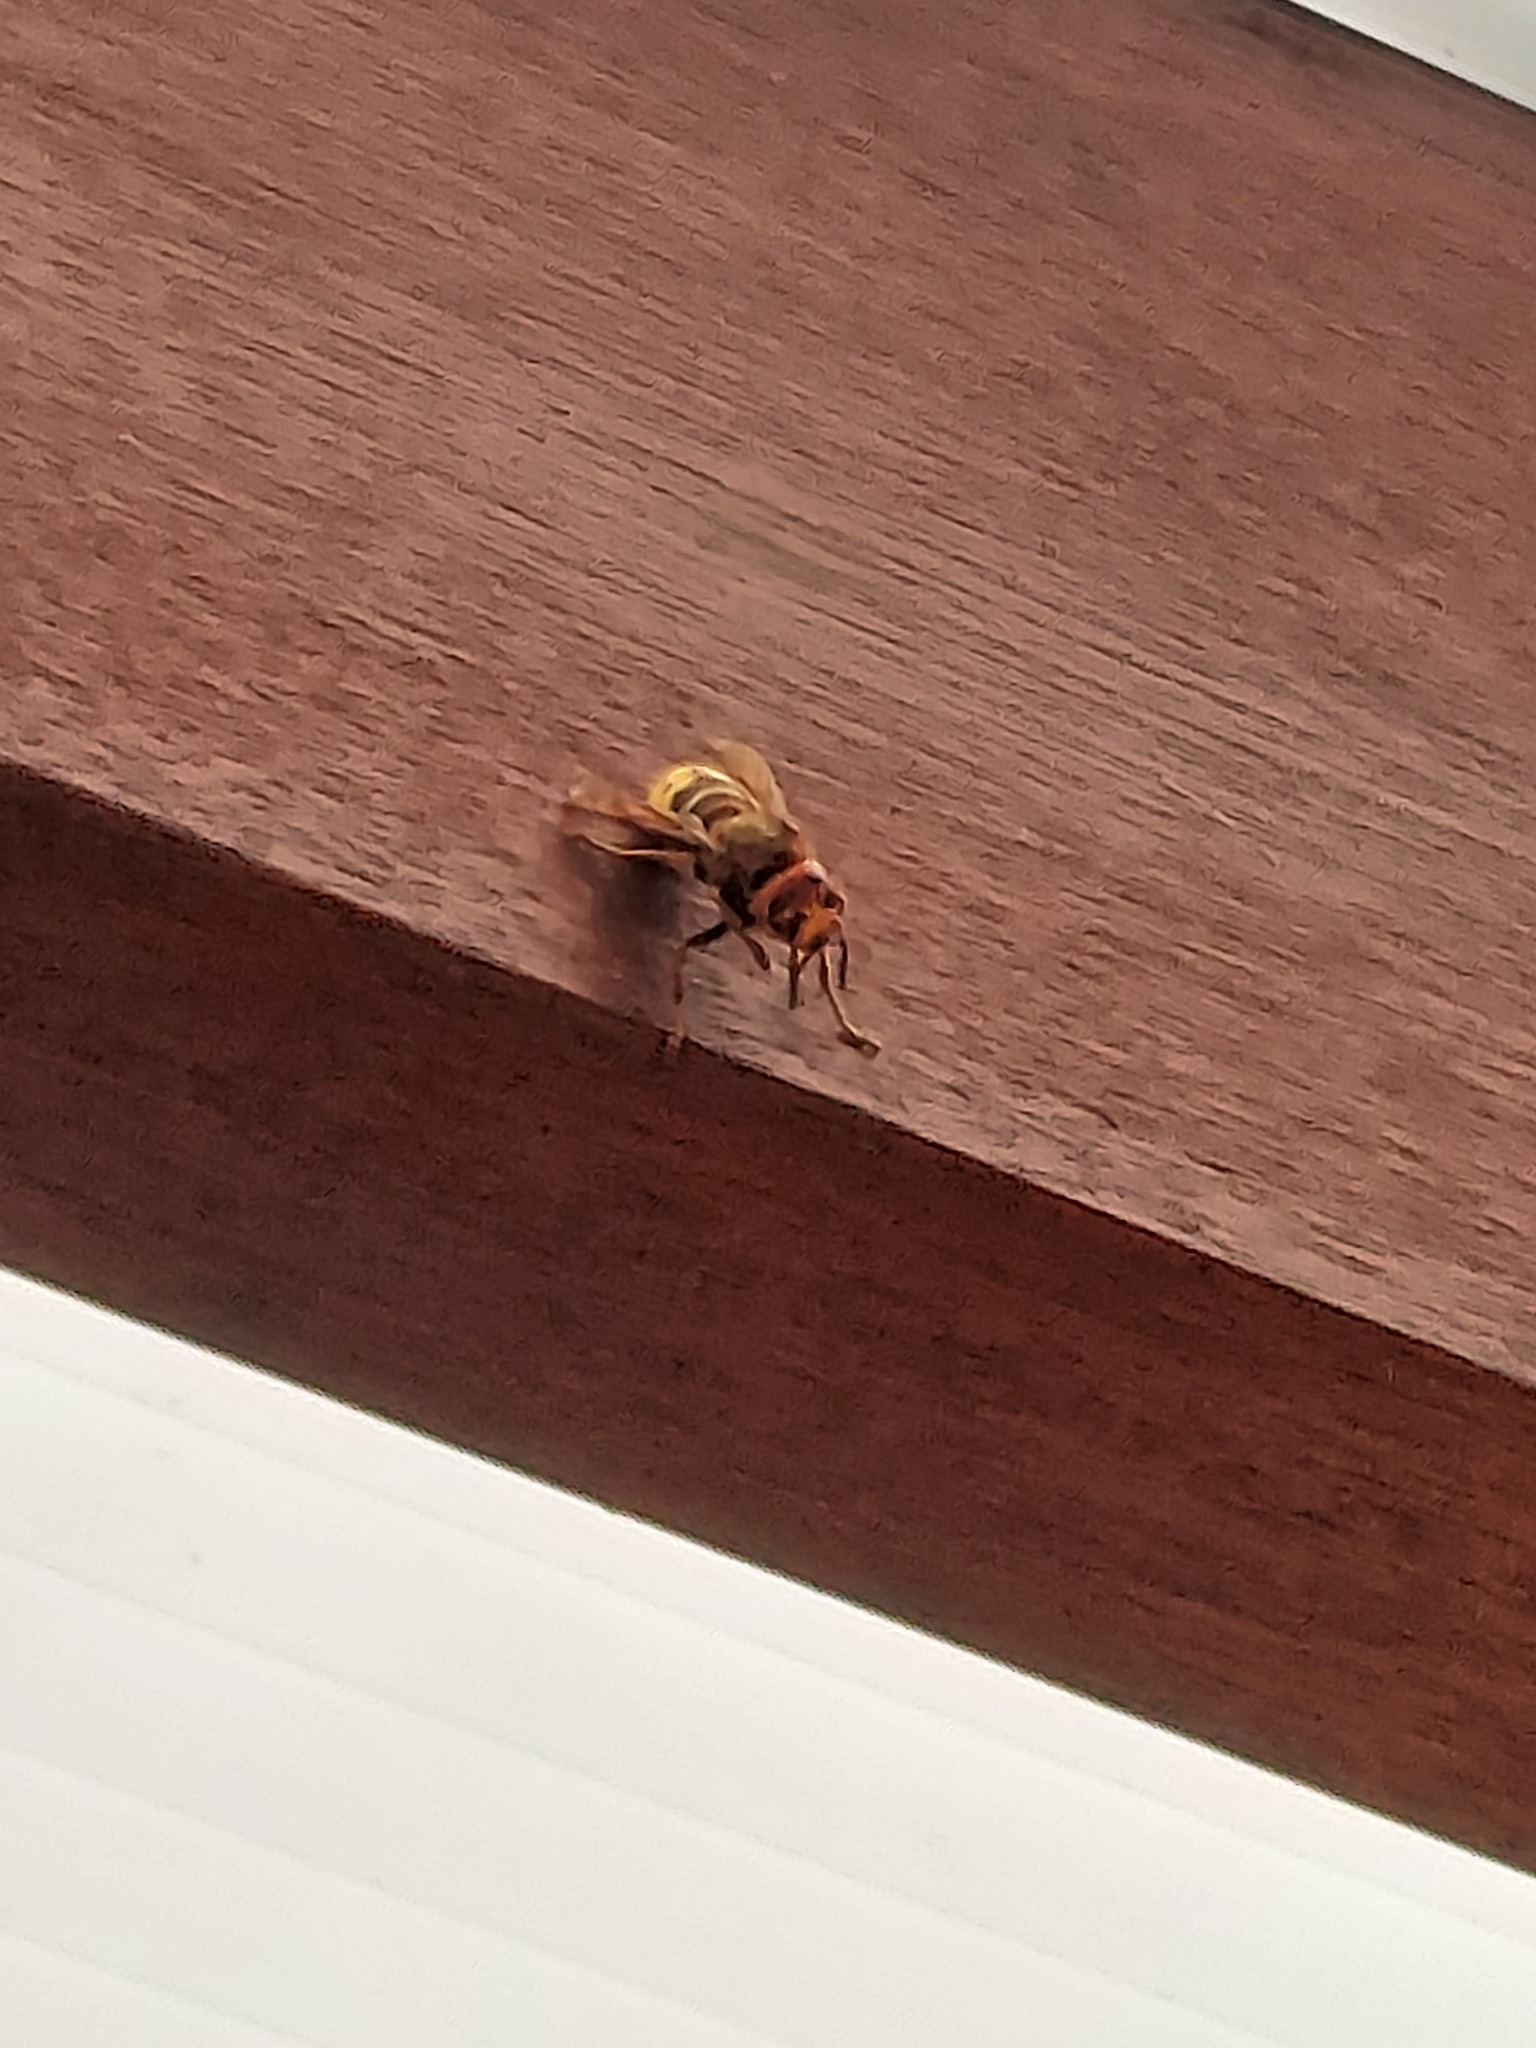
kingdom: Animalia
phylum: Arthropoda
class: Insecta
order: Hymenoptera
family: Vespidae
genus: Vespa
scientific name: Vespa crabro
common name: Hornet
